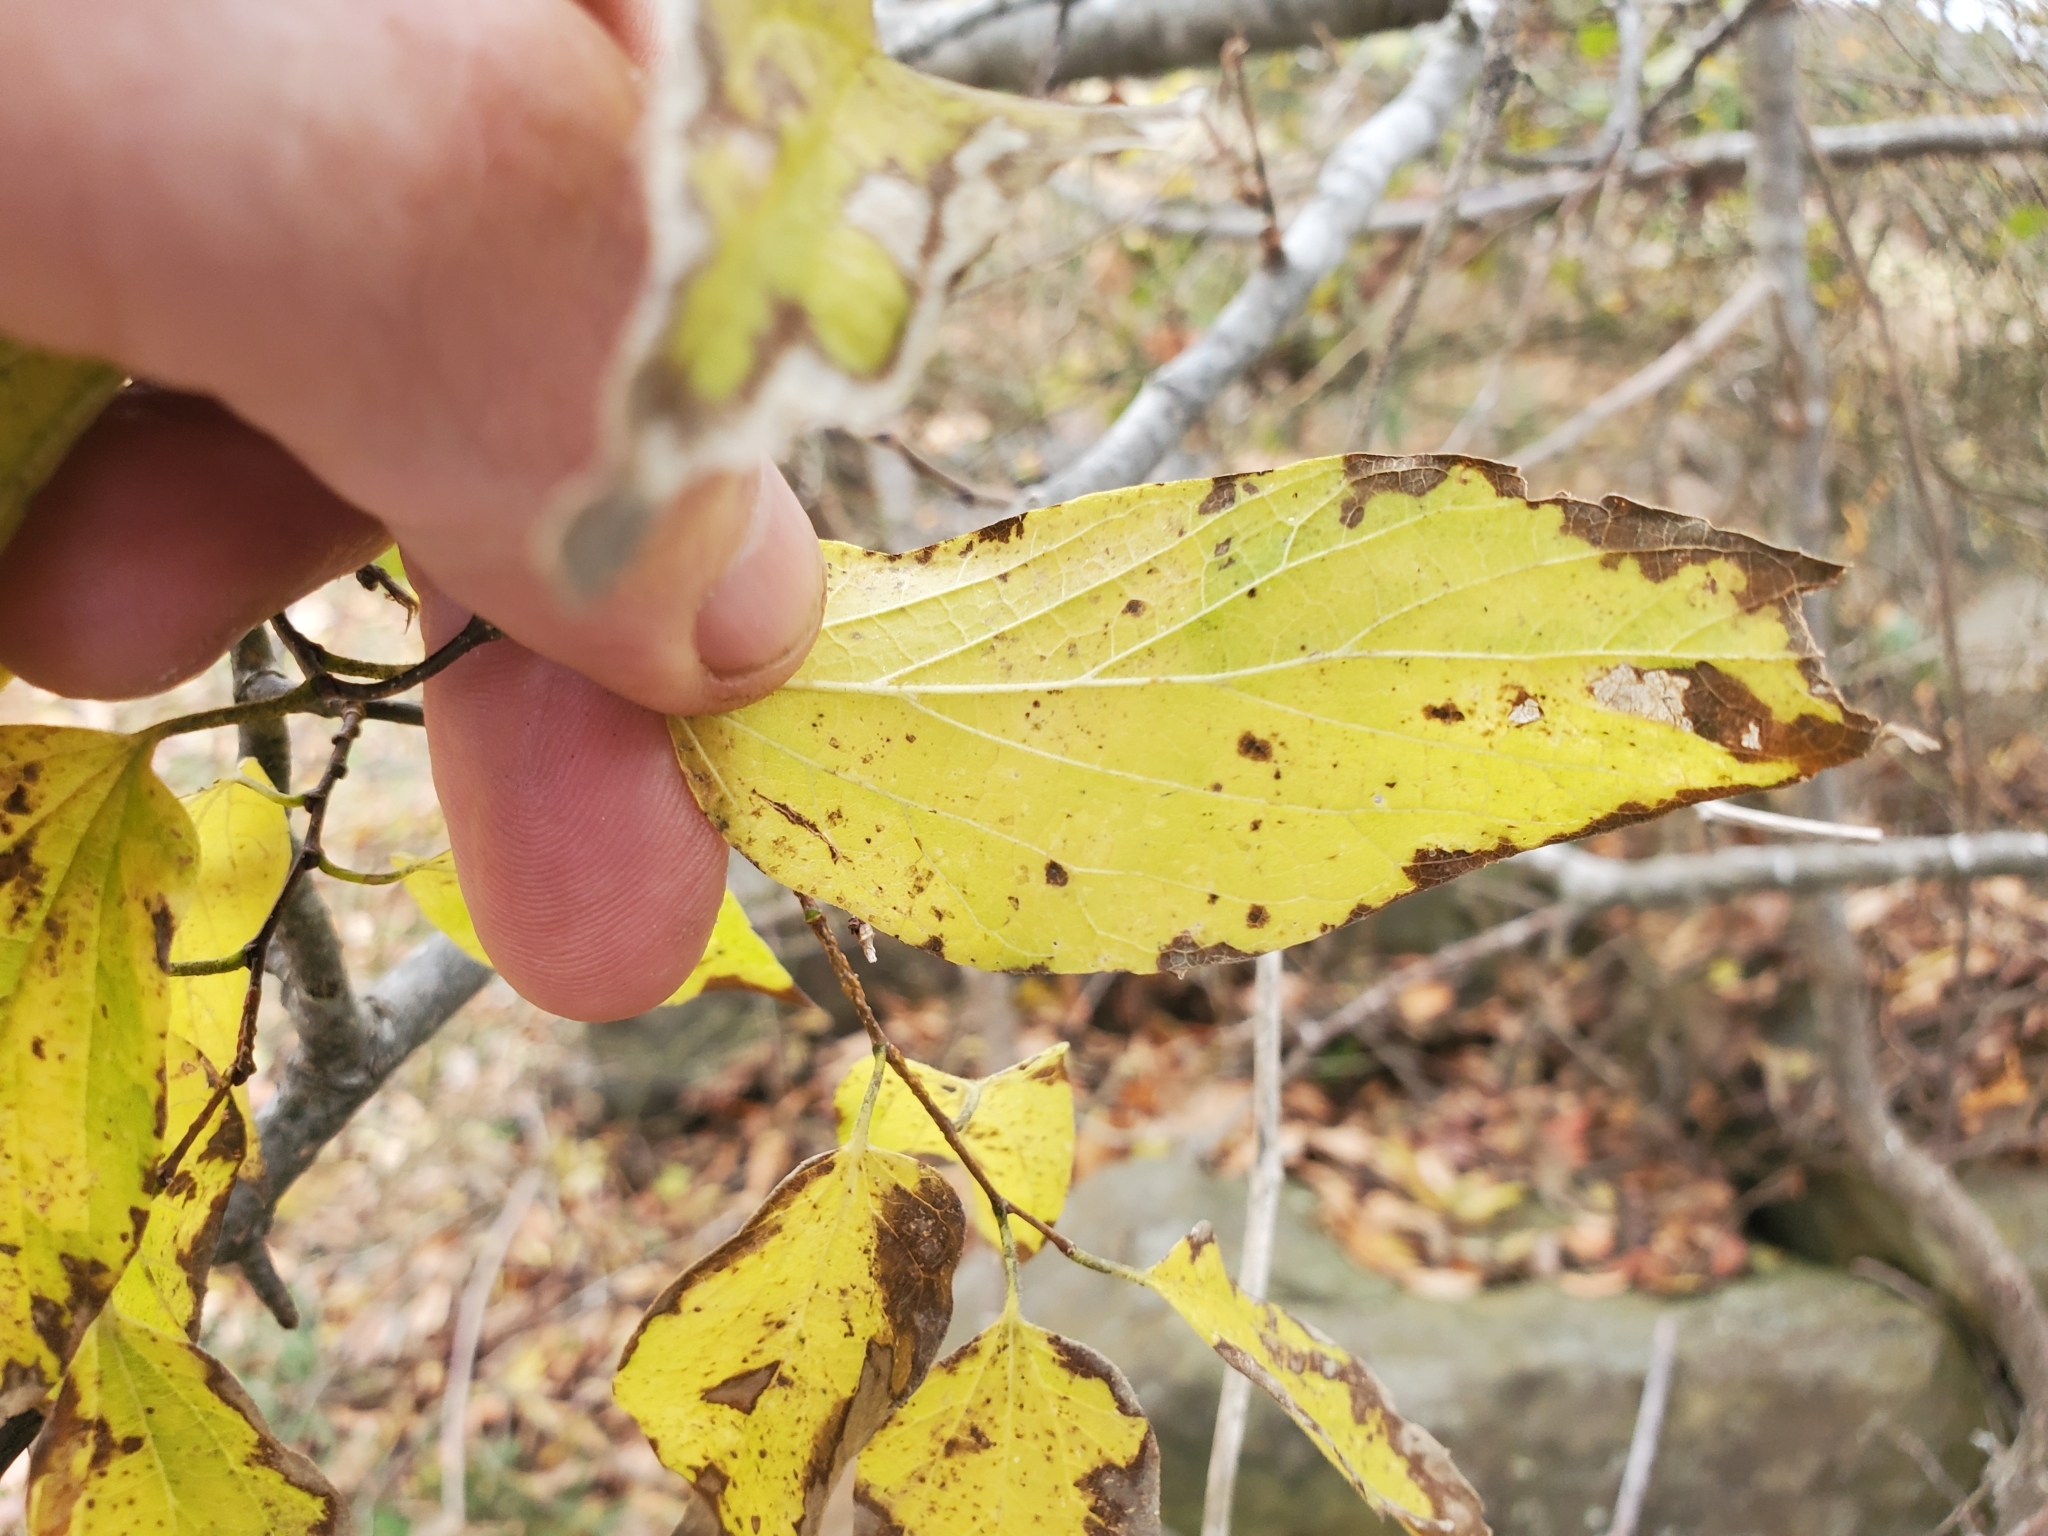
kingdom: Plantae
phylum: Tracheophyta
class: Magnoliopsida
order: Rosales
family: Cannabaceae
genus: Celtis
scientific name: Celtis laevigata
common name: Sugarberry
